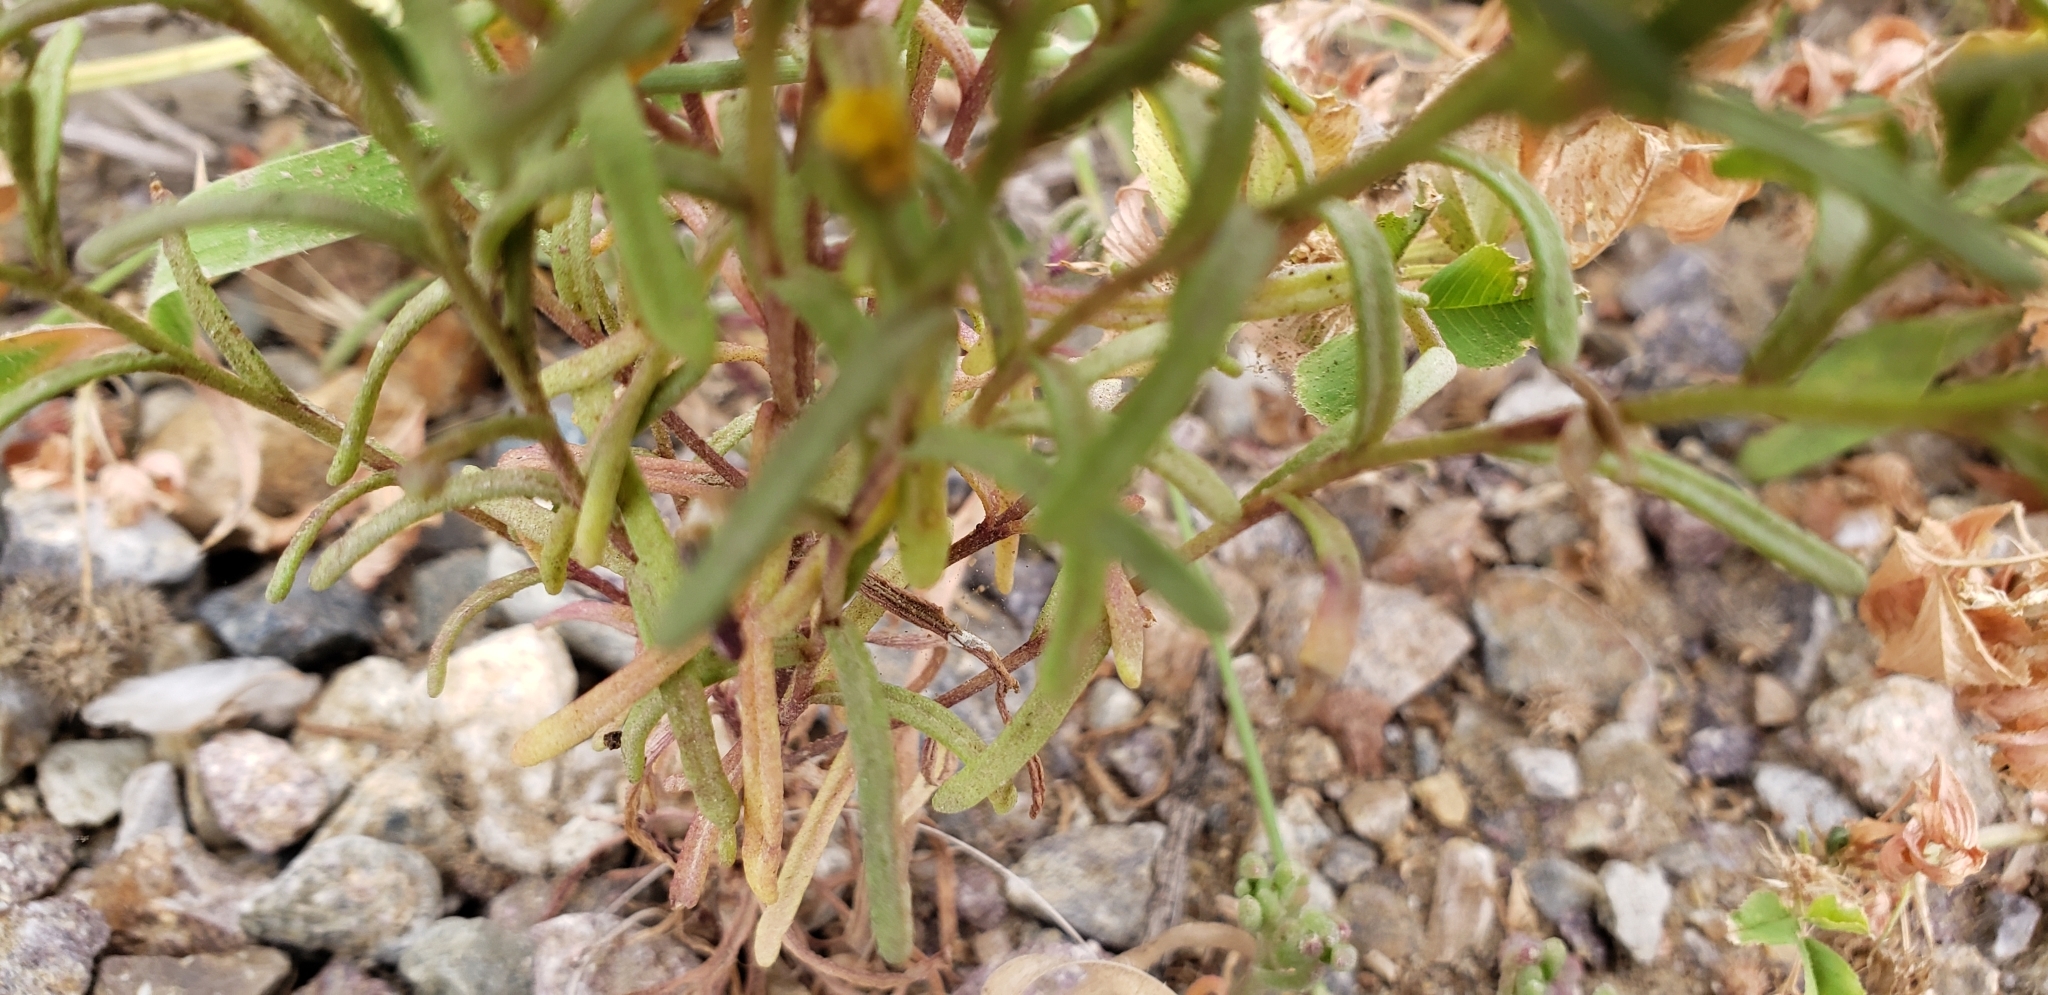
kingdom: Plantae
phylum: Tracheophyta
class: Magnoliopsida
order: Asterales
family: Asteraceae
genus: Amblyopappus
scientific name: Amblyopappus pusillus
